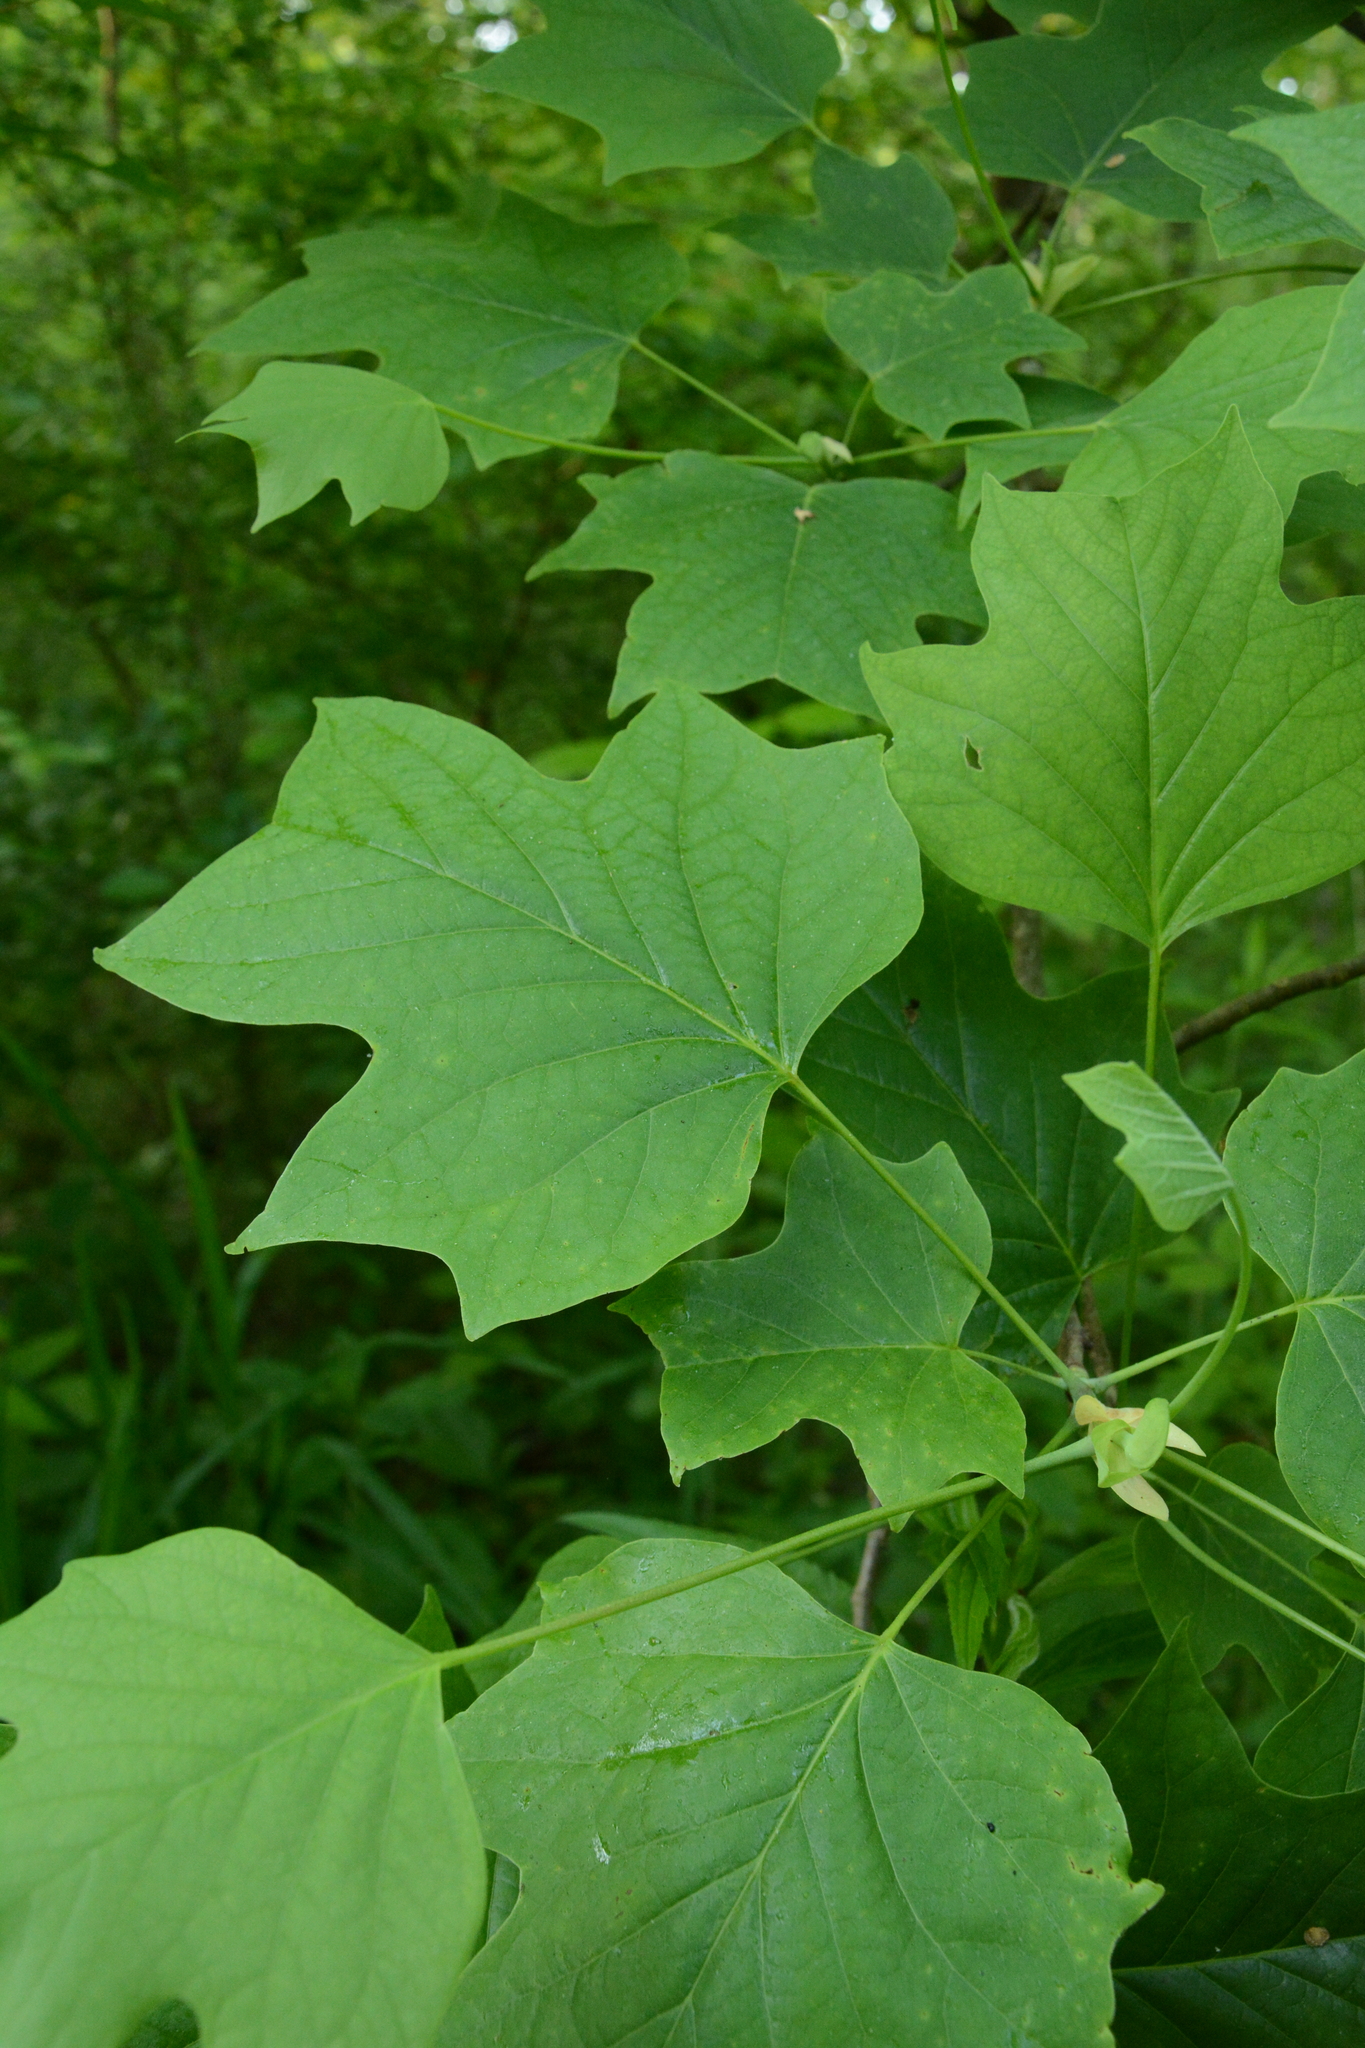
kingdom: Plantae
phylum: Tracheophyta
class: Magnoliopsida
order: Magnoliales
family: Magnoliaceae
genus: Liriodendron
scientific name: Liriodendron tulipifera
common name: Tulip tree
